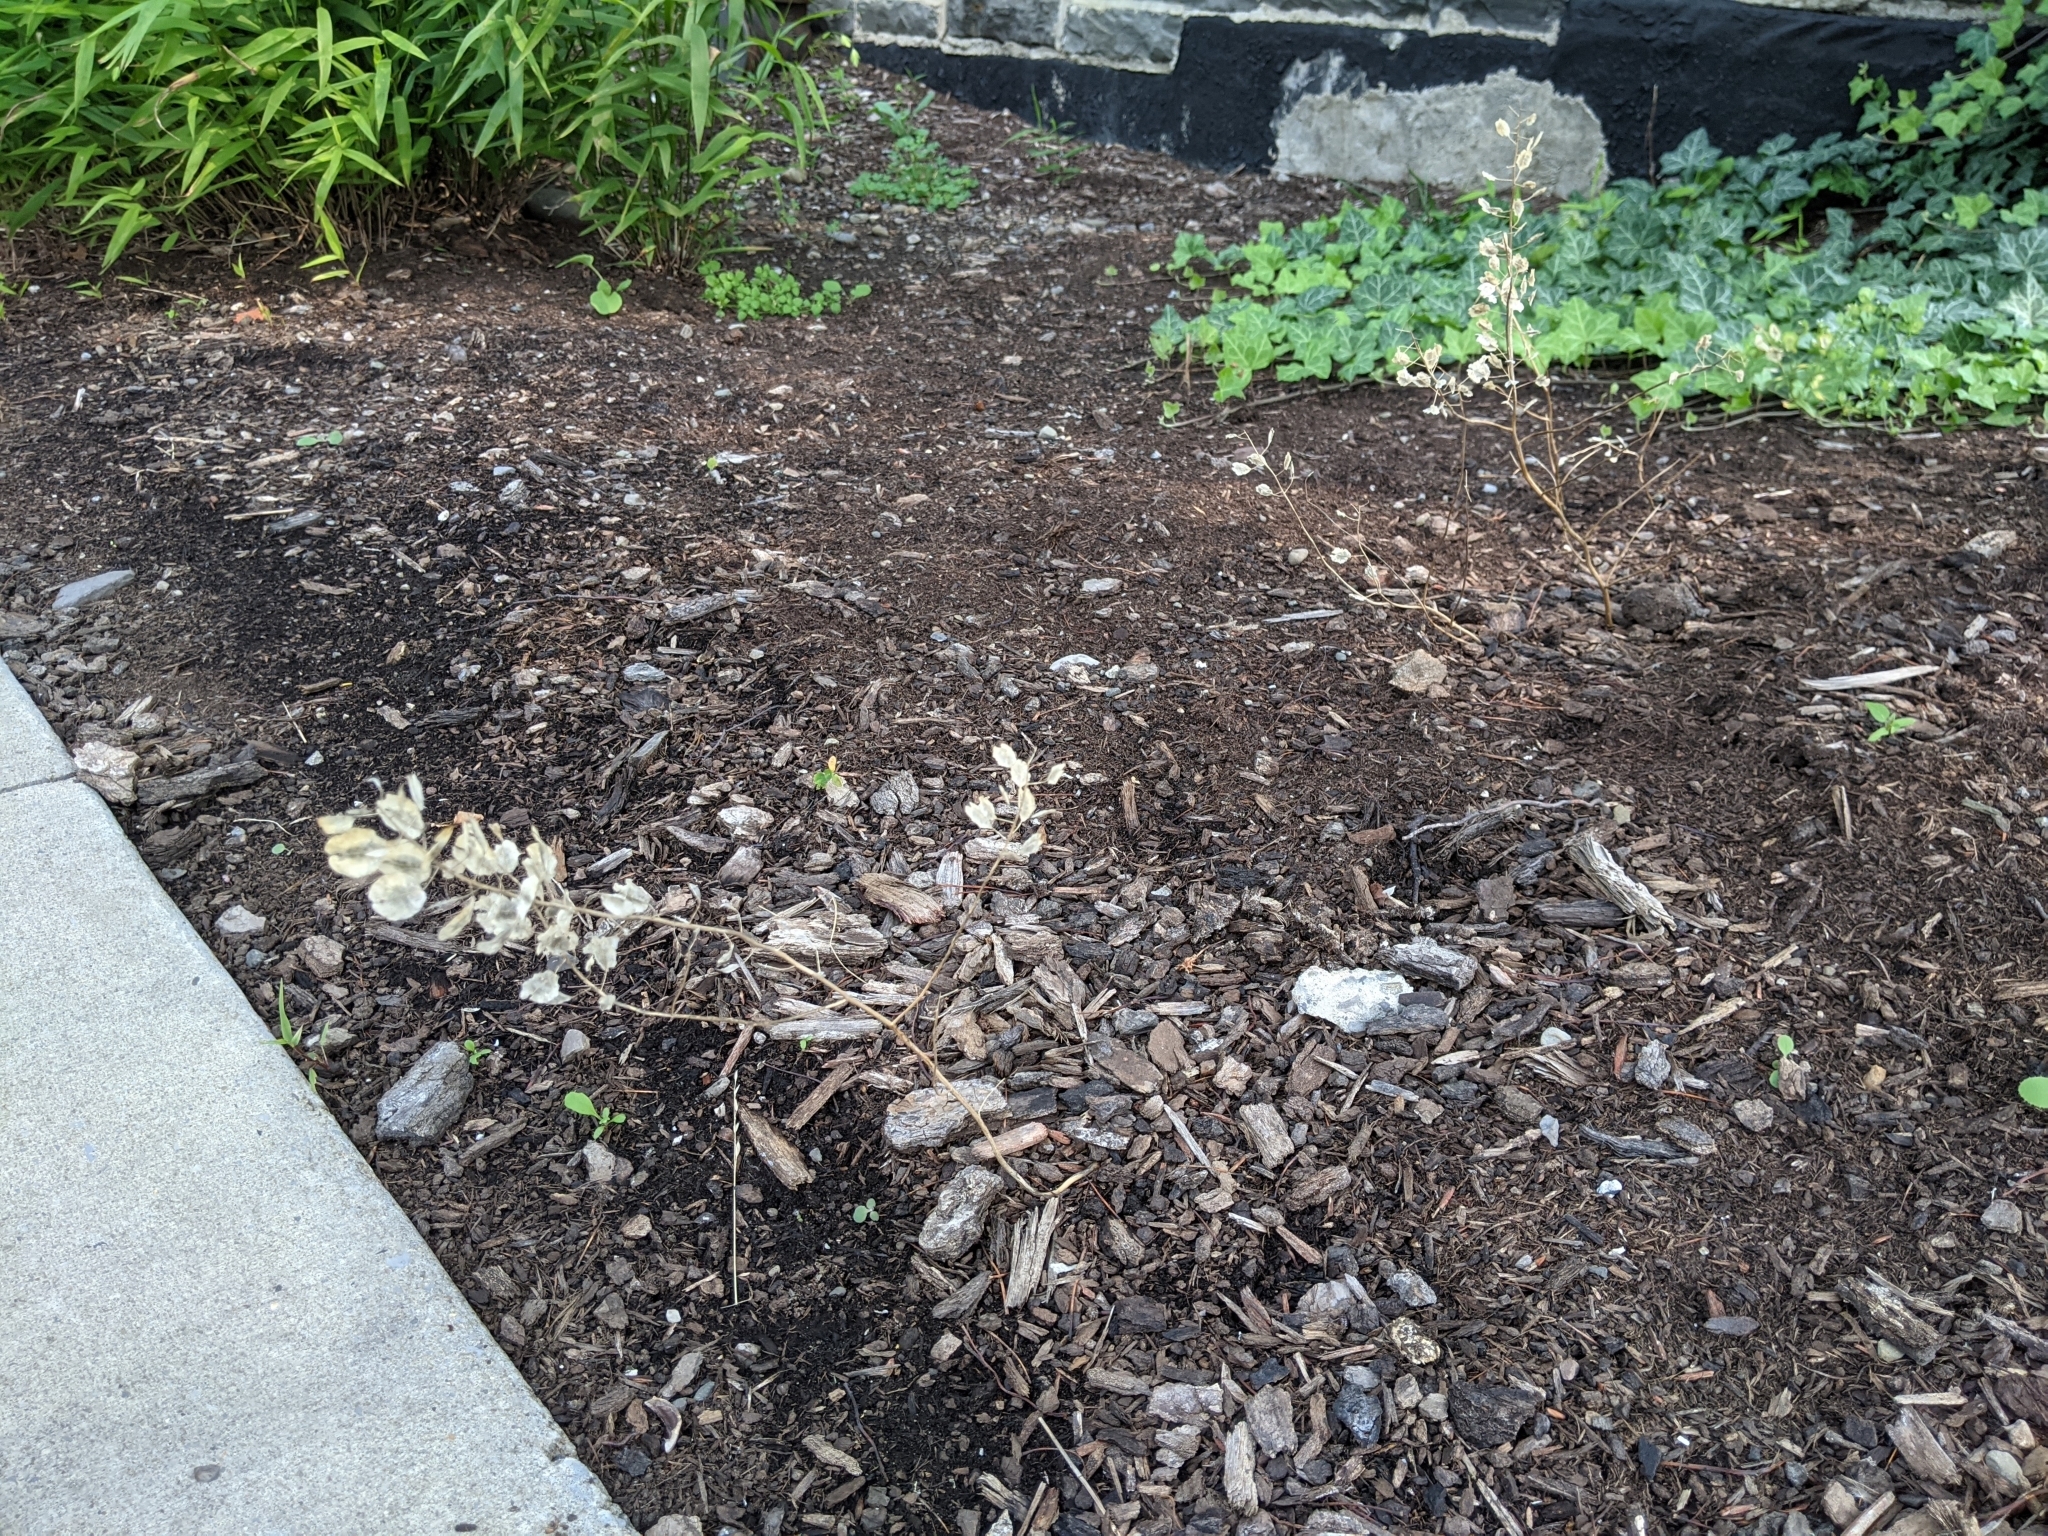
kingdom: Plantae
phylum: Tracheophyta
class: Magnoliopsida
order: Brassicales
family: Brassicaceae
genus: Thlaspi
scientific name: Thlaspi arvense
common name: Field pennycress
